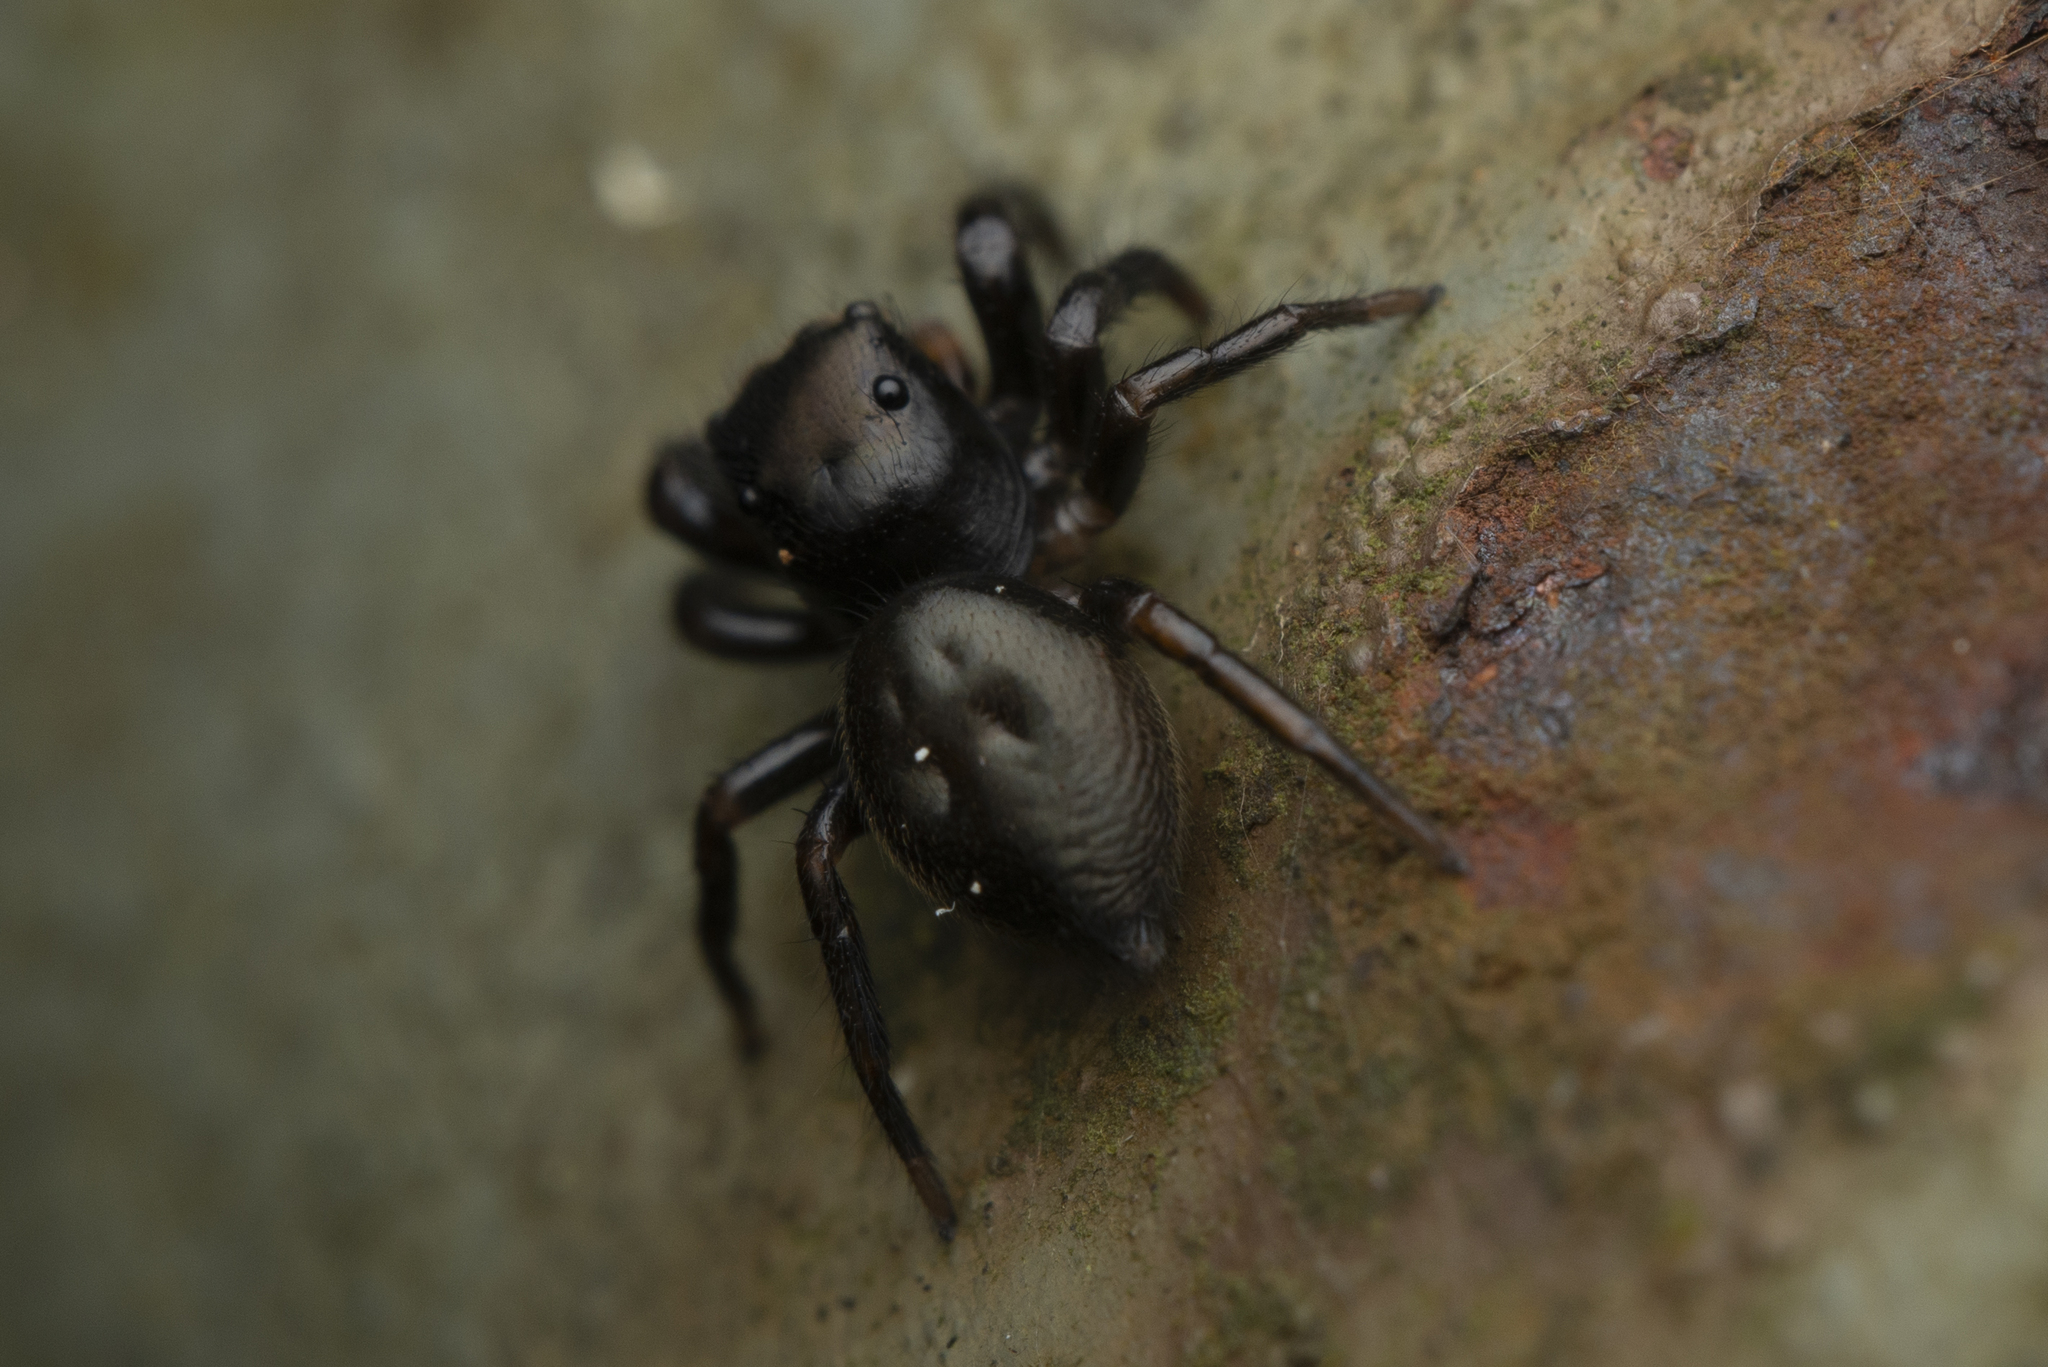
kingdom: Animalia
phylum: Arthropoda
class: Arachnida
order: Araneae
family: Salticidae
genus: Orcevia
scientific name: Orcevia proszynskii
